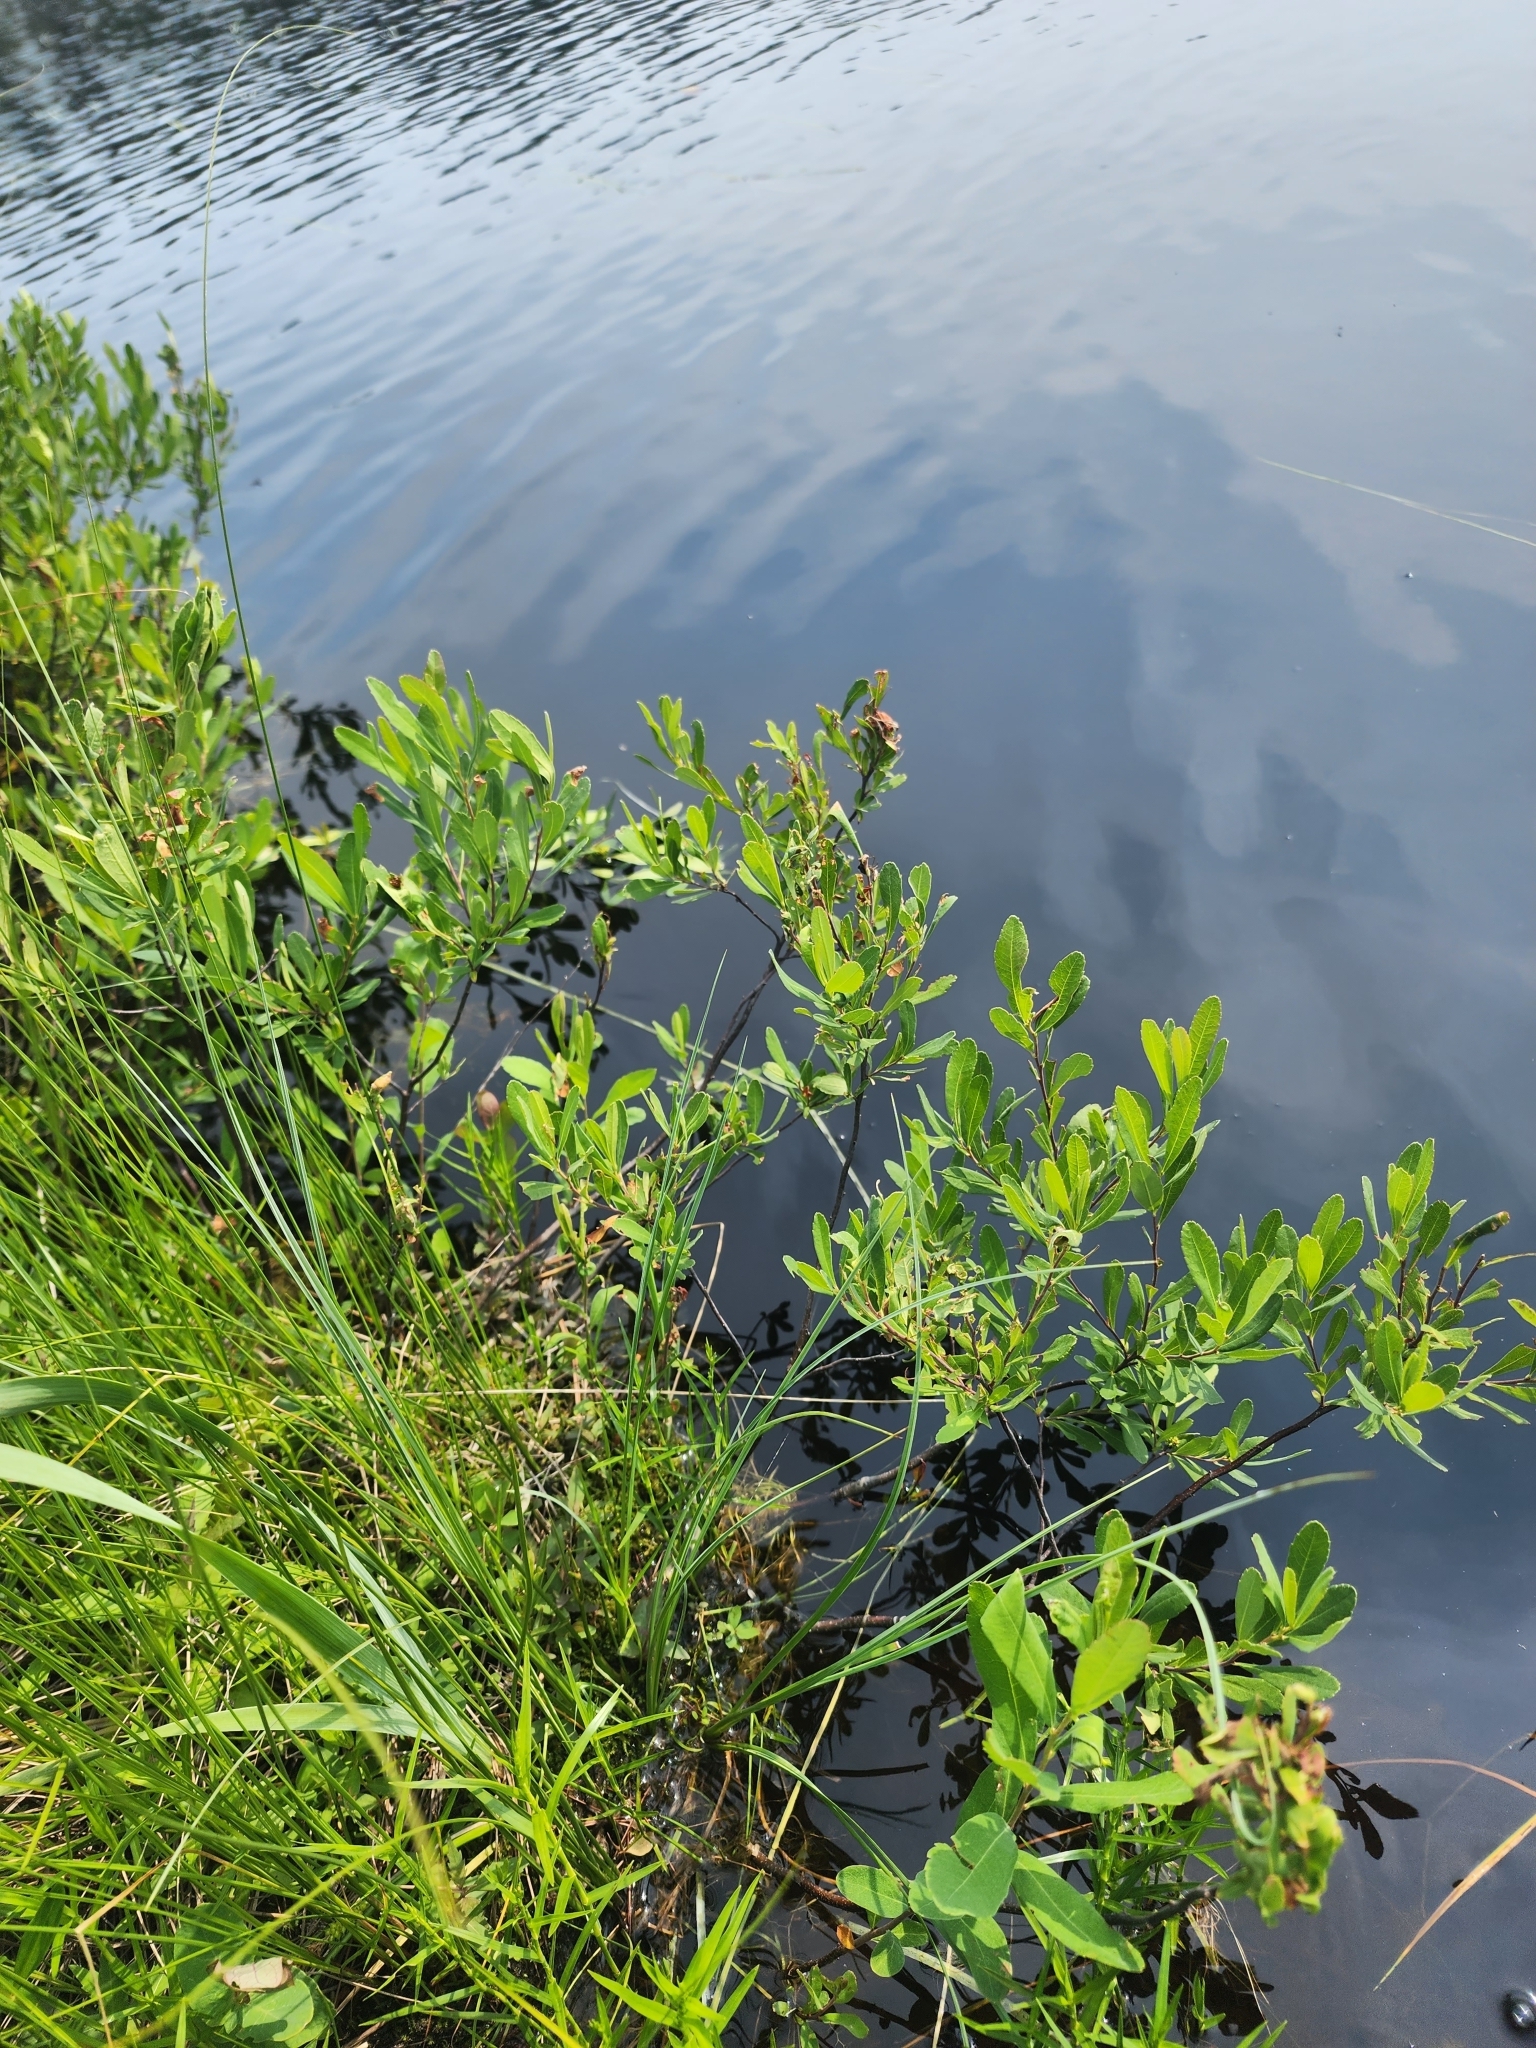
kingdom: Plantae
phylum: Tracheophyta
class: Magnoliopsida
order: Fagales
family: Myricaceae
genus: Myrica
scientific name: Myrica gale
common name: Sweet gale
